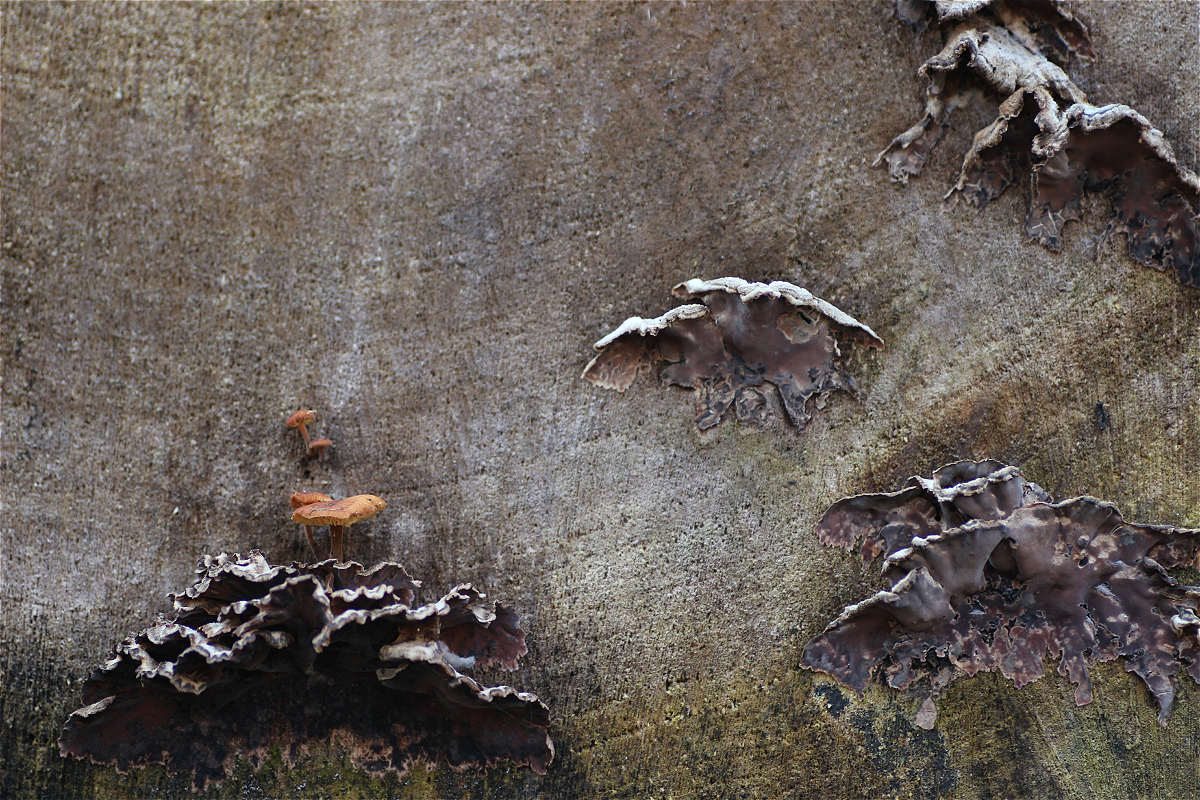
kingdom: Fungi
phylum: Basidiomycota
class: Agaricomycetes
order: Agaricales
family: Cyphellaceae
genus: Chondrostereum
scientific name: Chondrostereum purpureum
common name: Silver leaf disease
